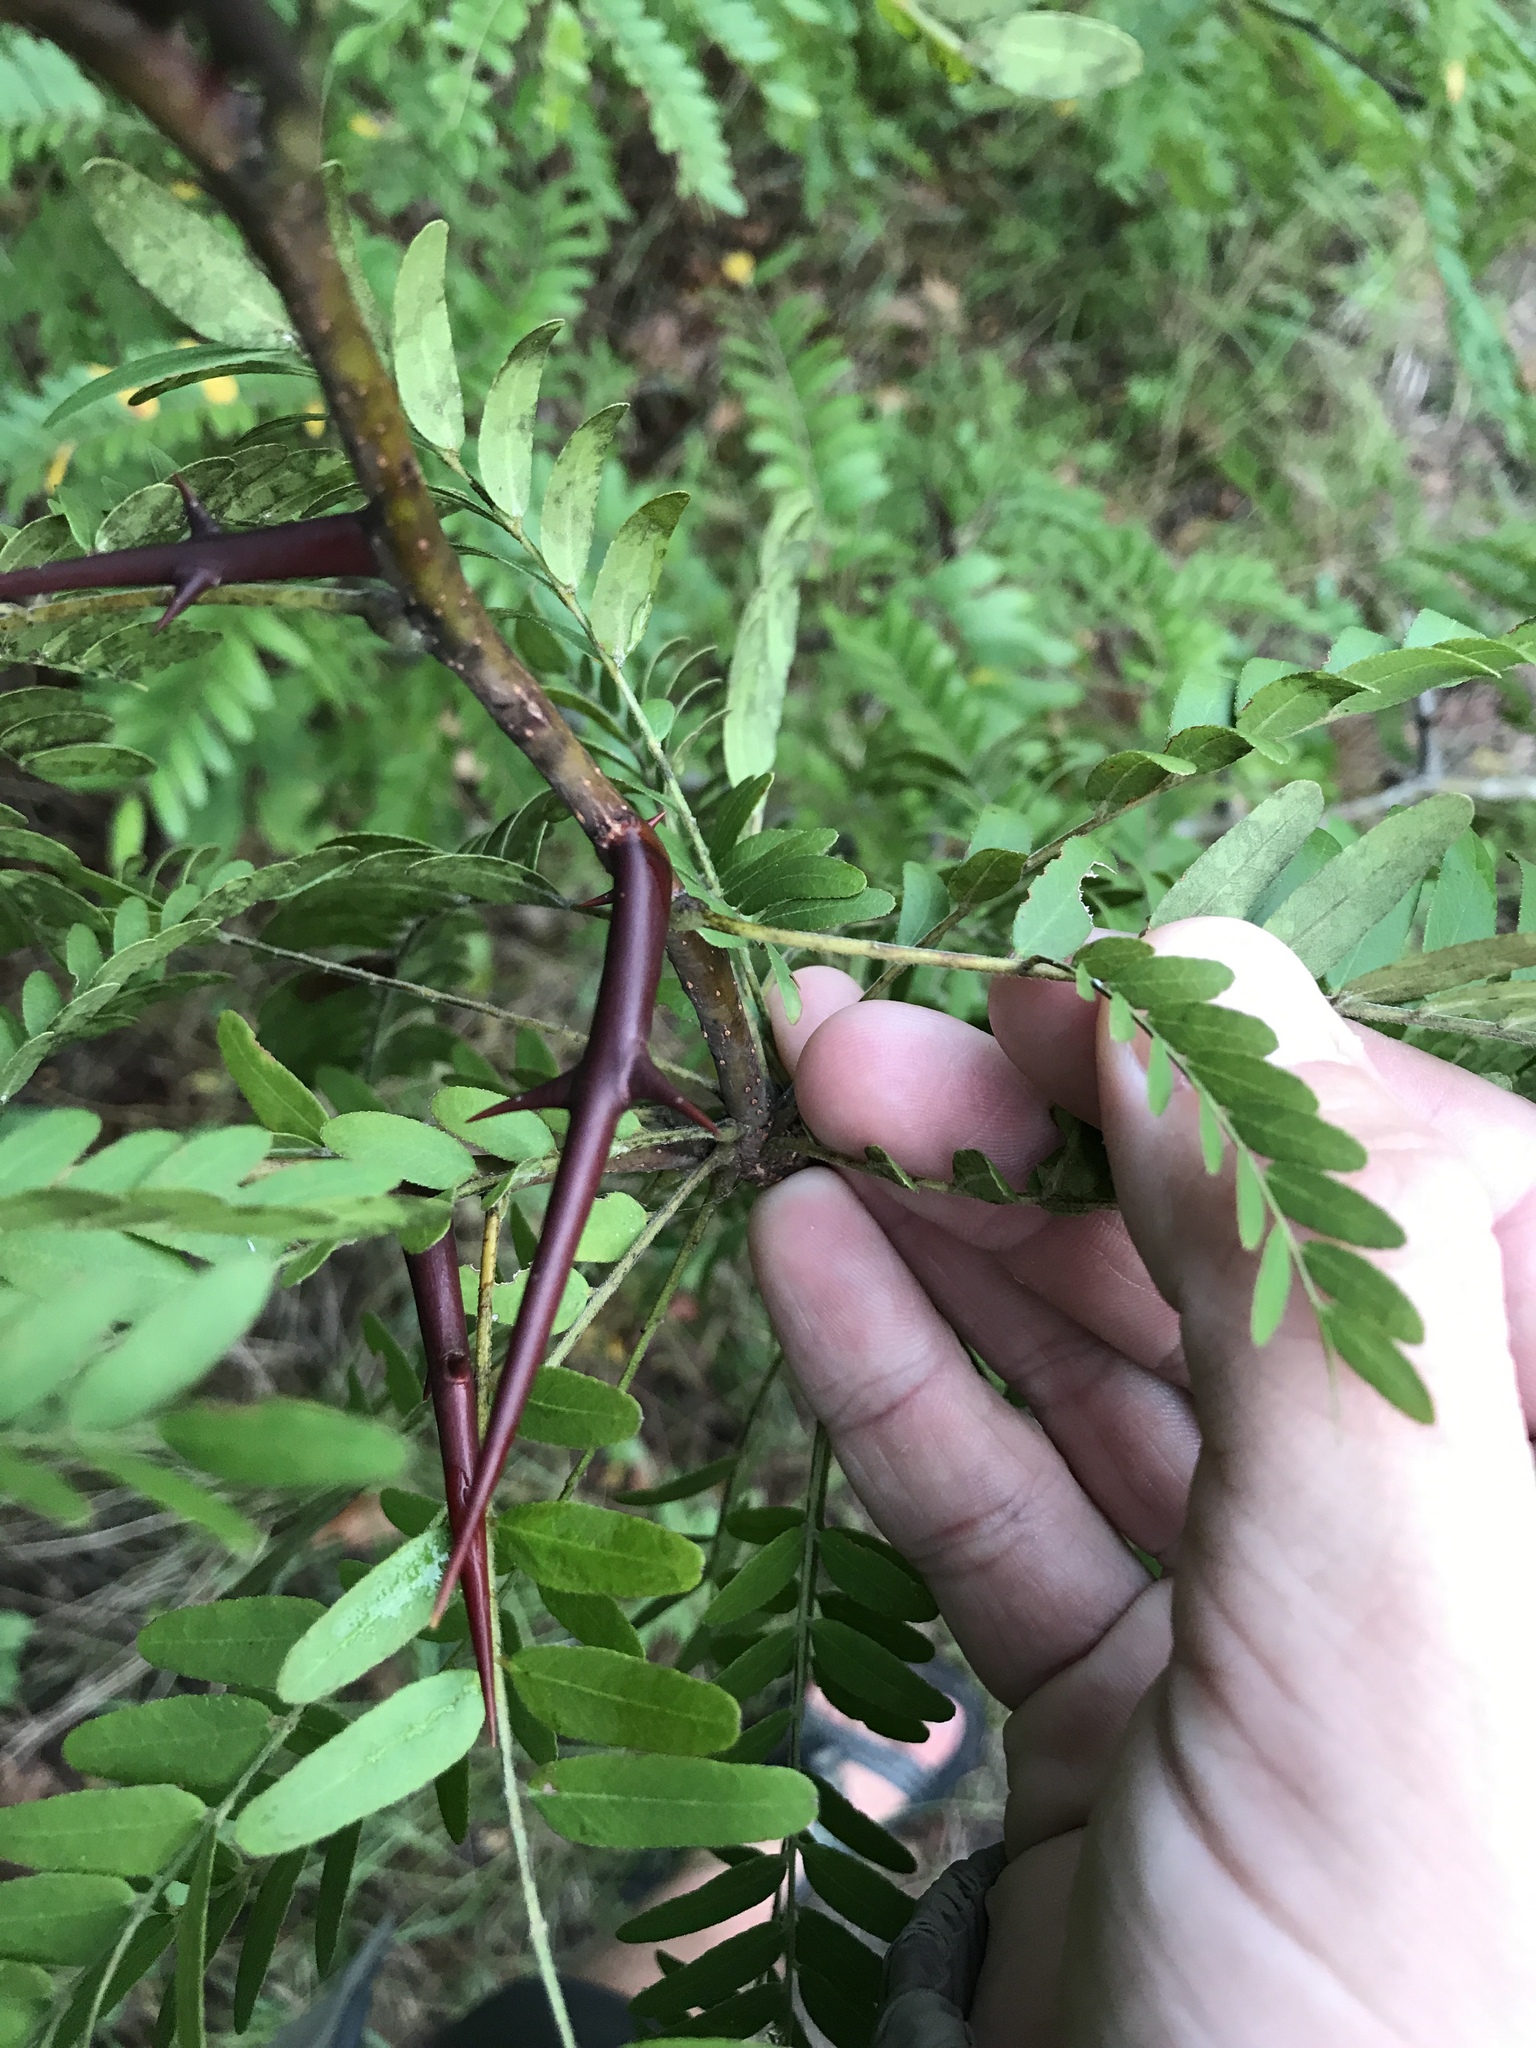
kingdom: Plantae
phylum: Tracheophyta
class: Magnoliopsida
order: Fabales
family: Fabaceae
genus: Gleditsia
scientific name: Gleditsia triacanthos
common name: Common honeylocust
